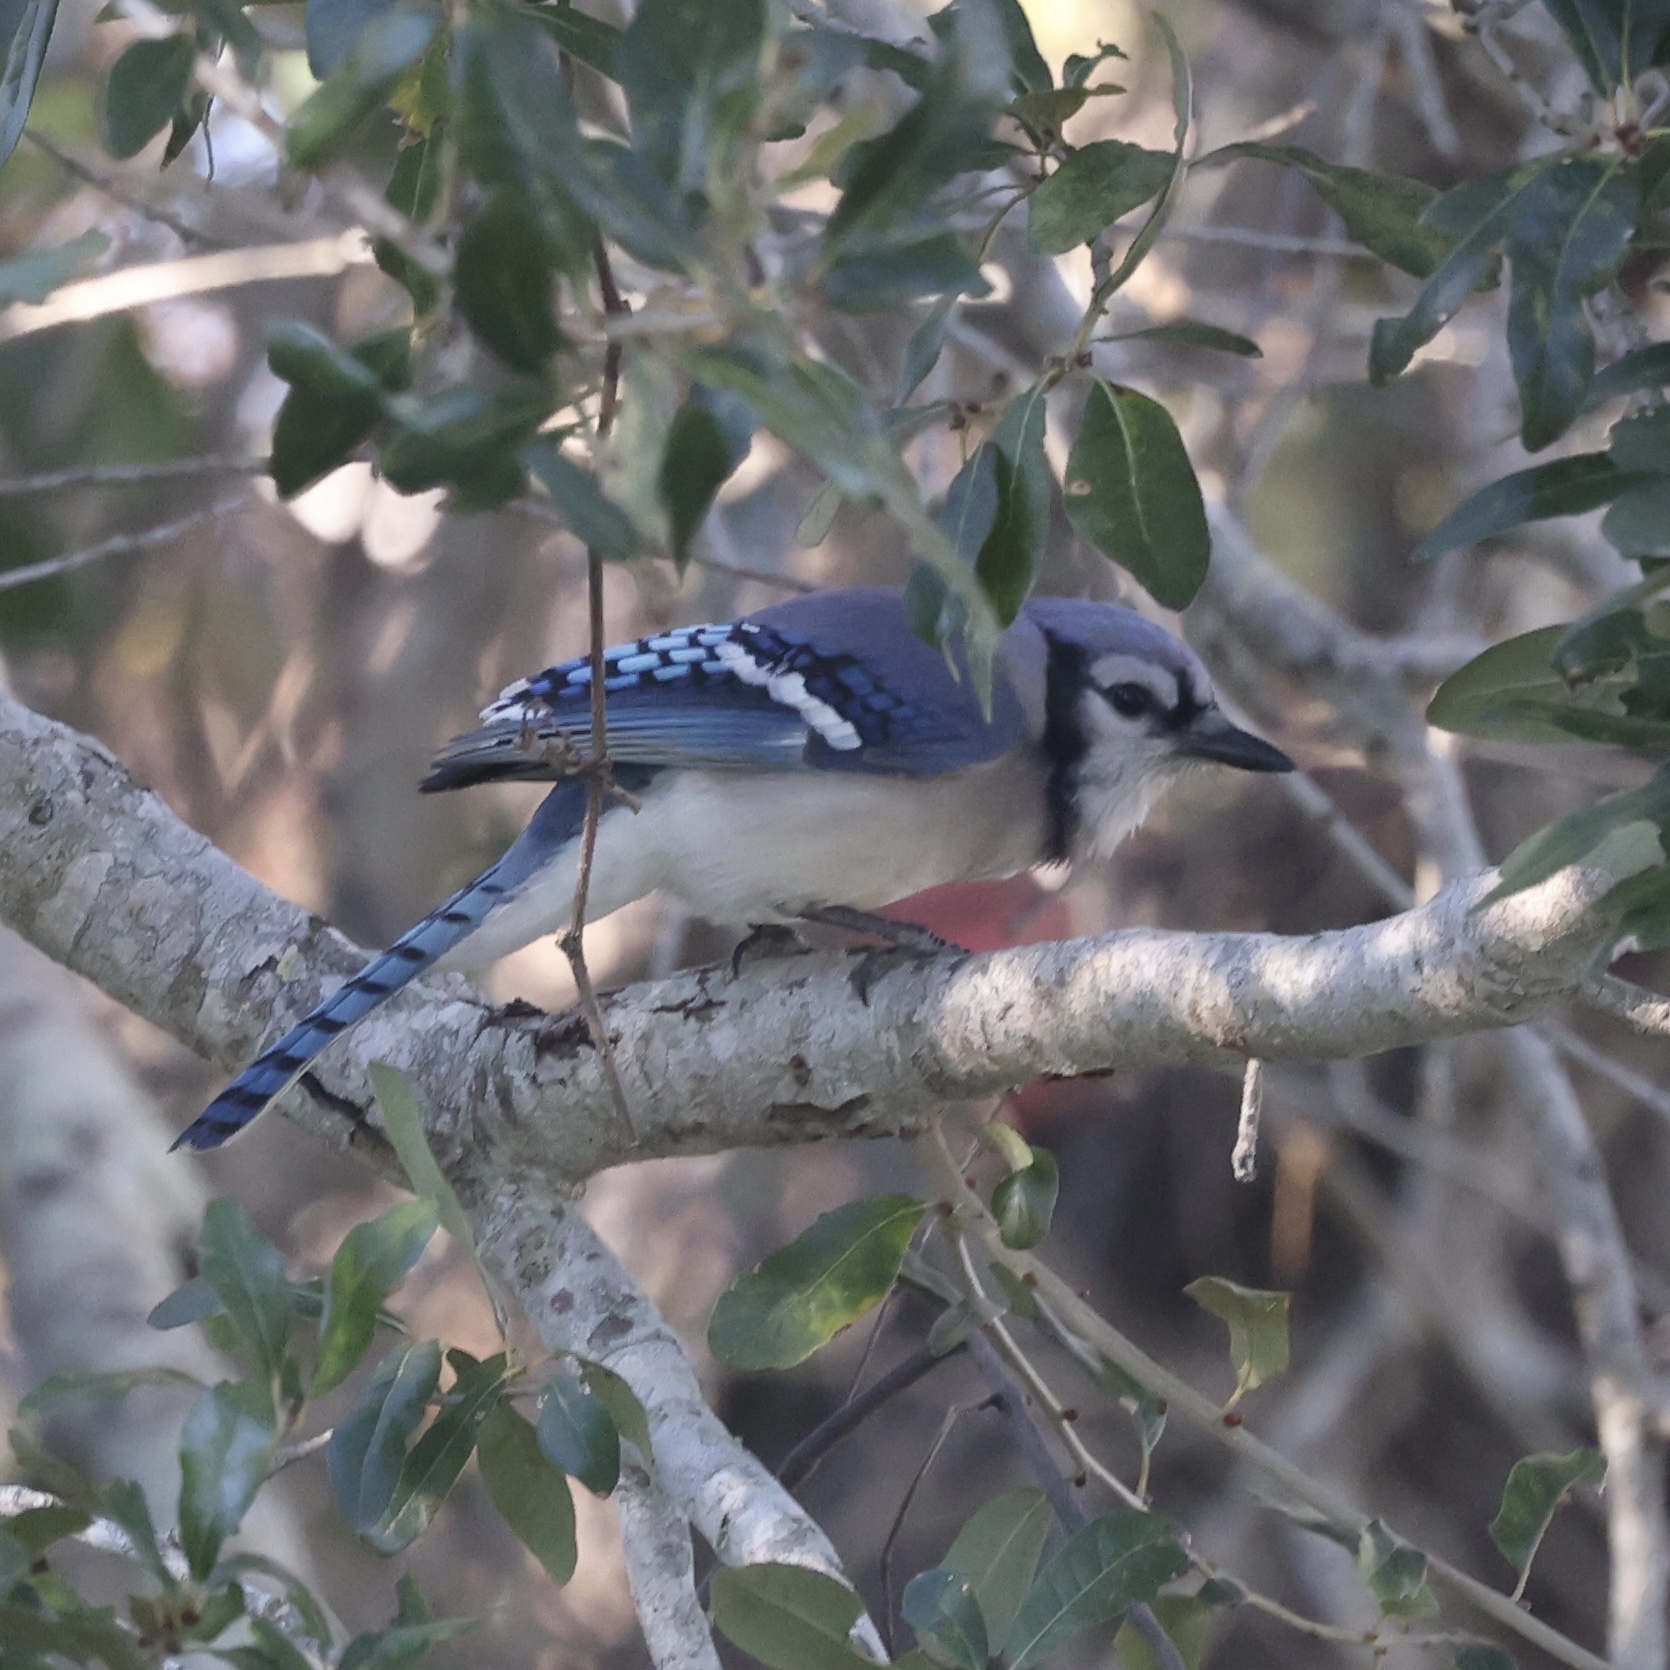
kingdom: Animalia
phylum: Chordata
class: Aves
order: Passeriformes
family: Corvidae
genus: Cyanocitta
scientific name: Cyanocitta cristata
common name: Blue jay
